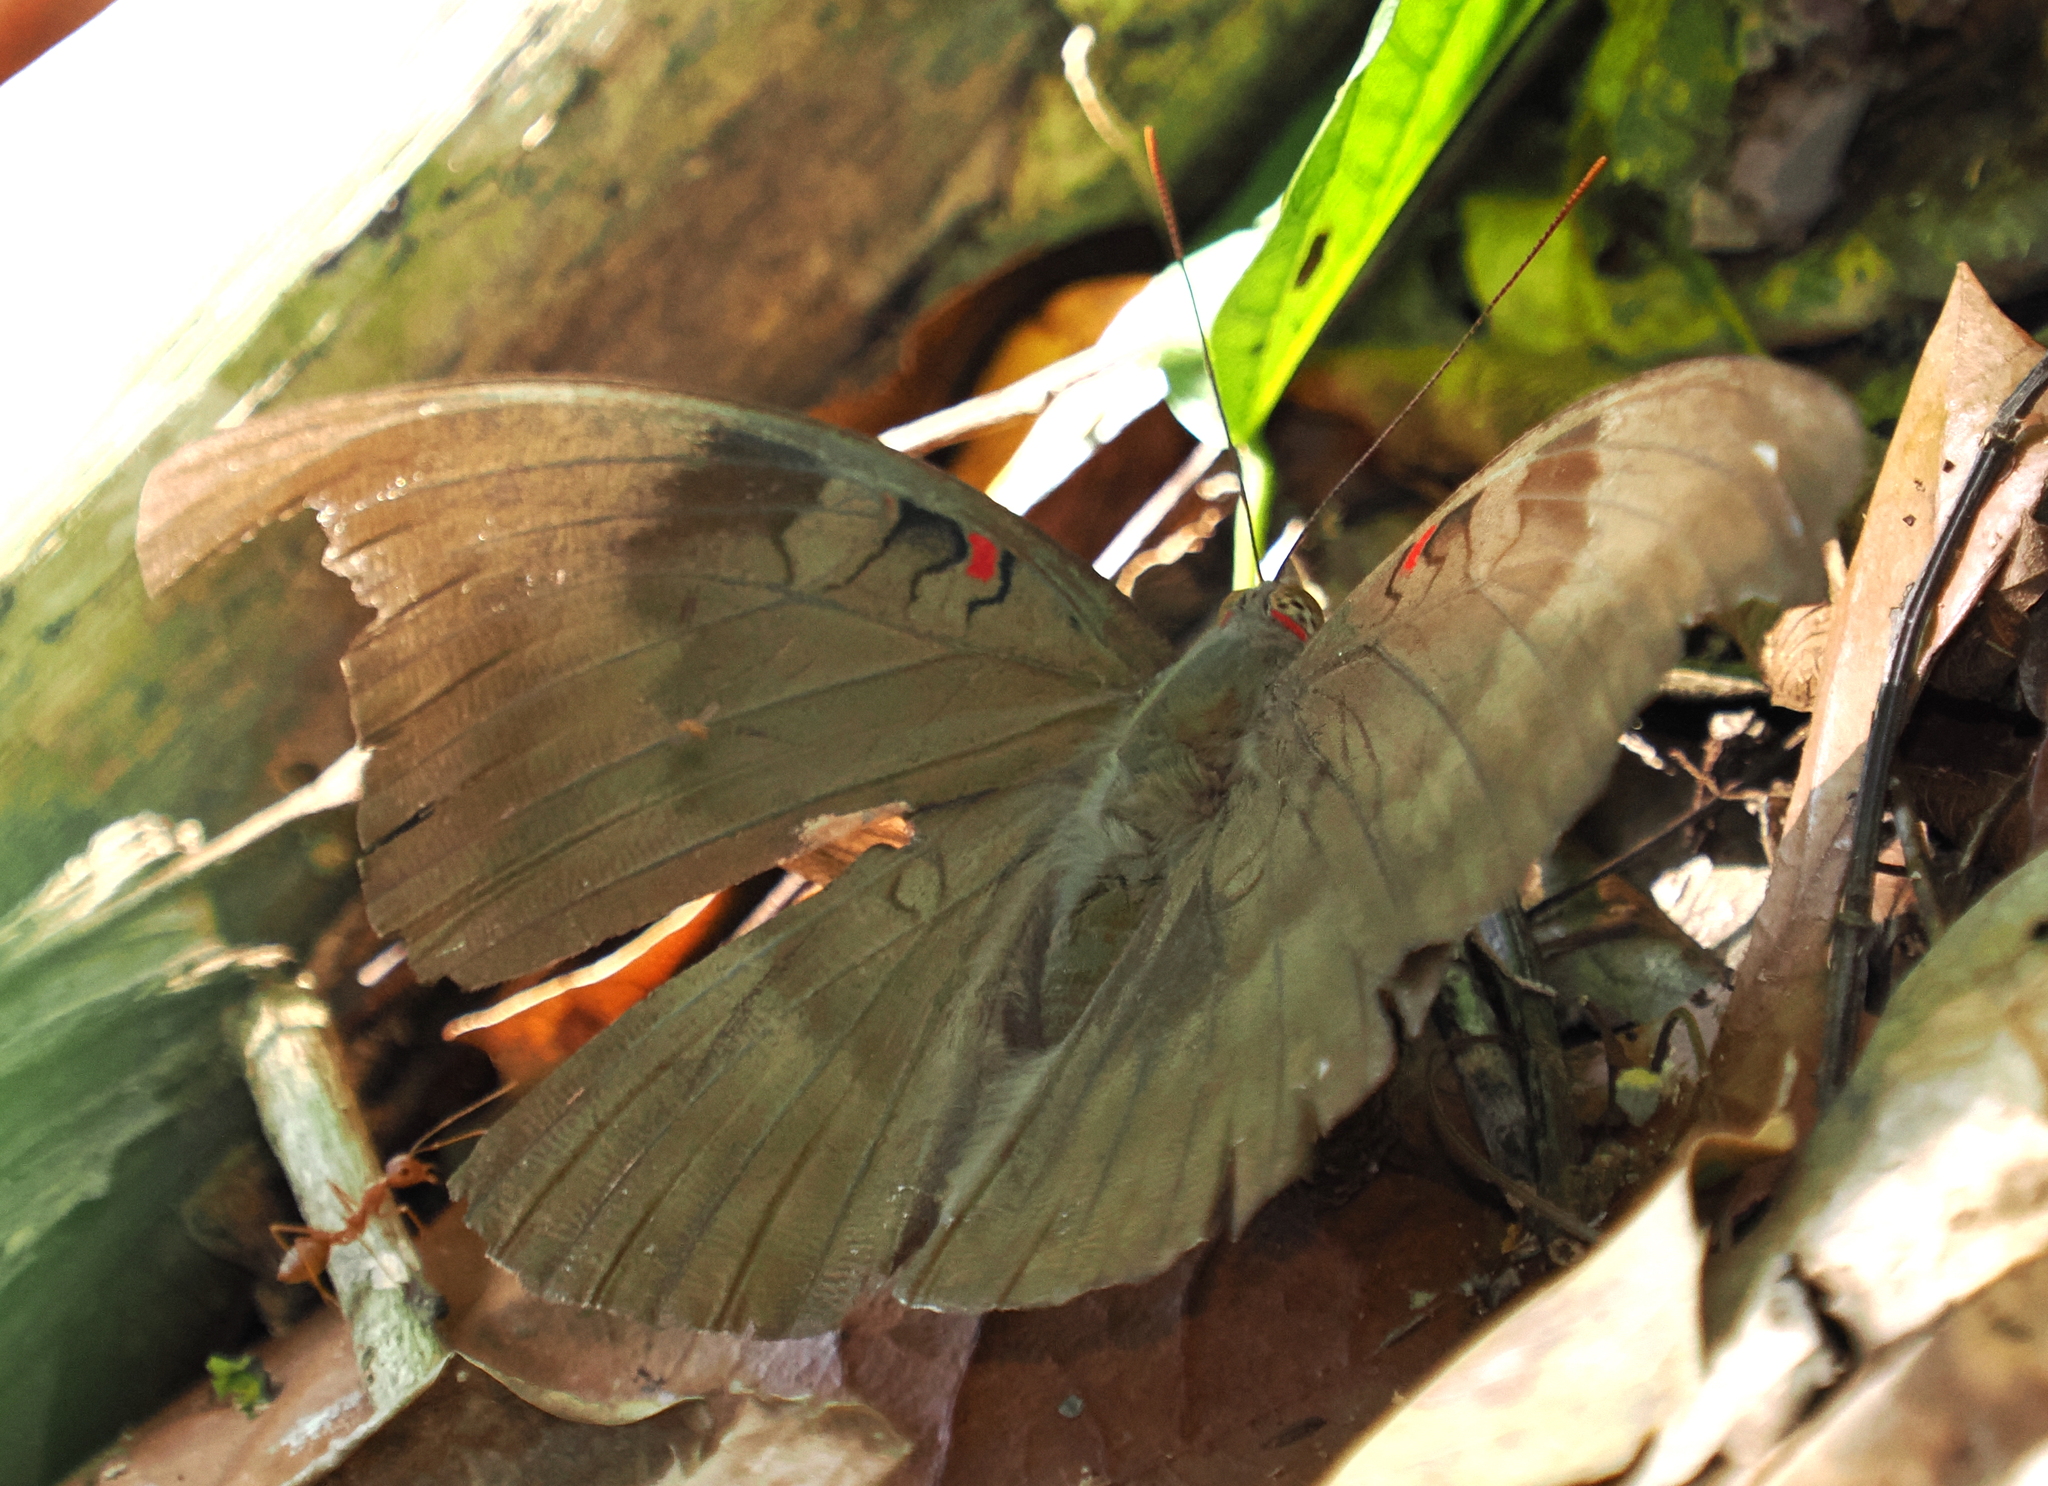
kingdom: Animalia
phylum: Arthropoda
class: Insecta
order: Lepidoptera
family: Nymphalidae
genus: Euthalia
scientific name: Euthalia Dophla evelina
